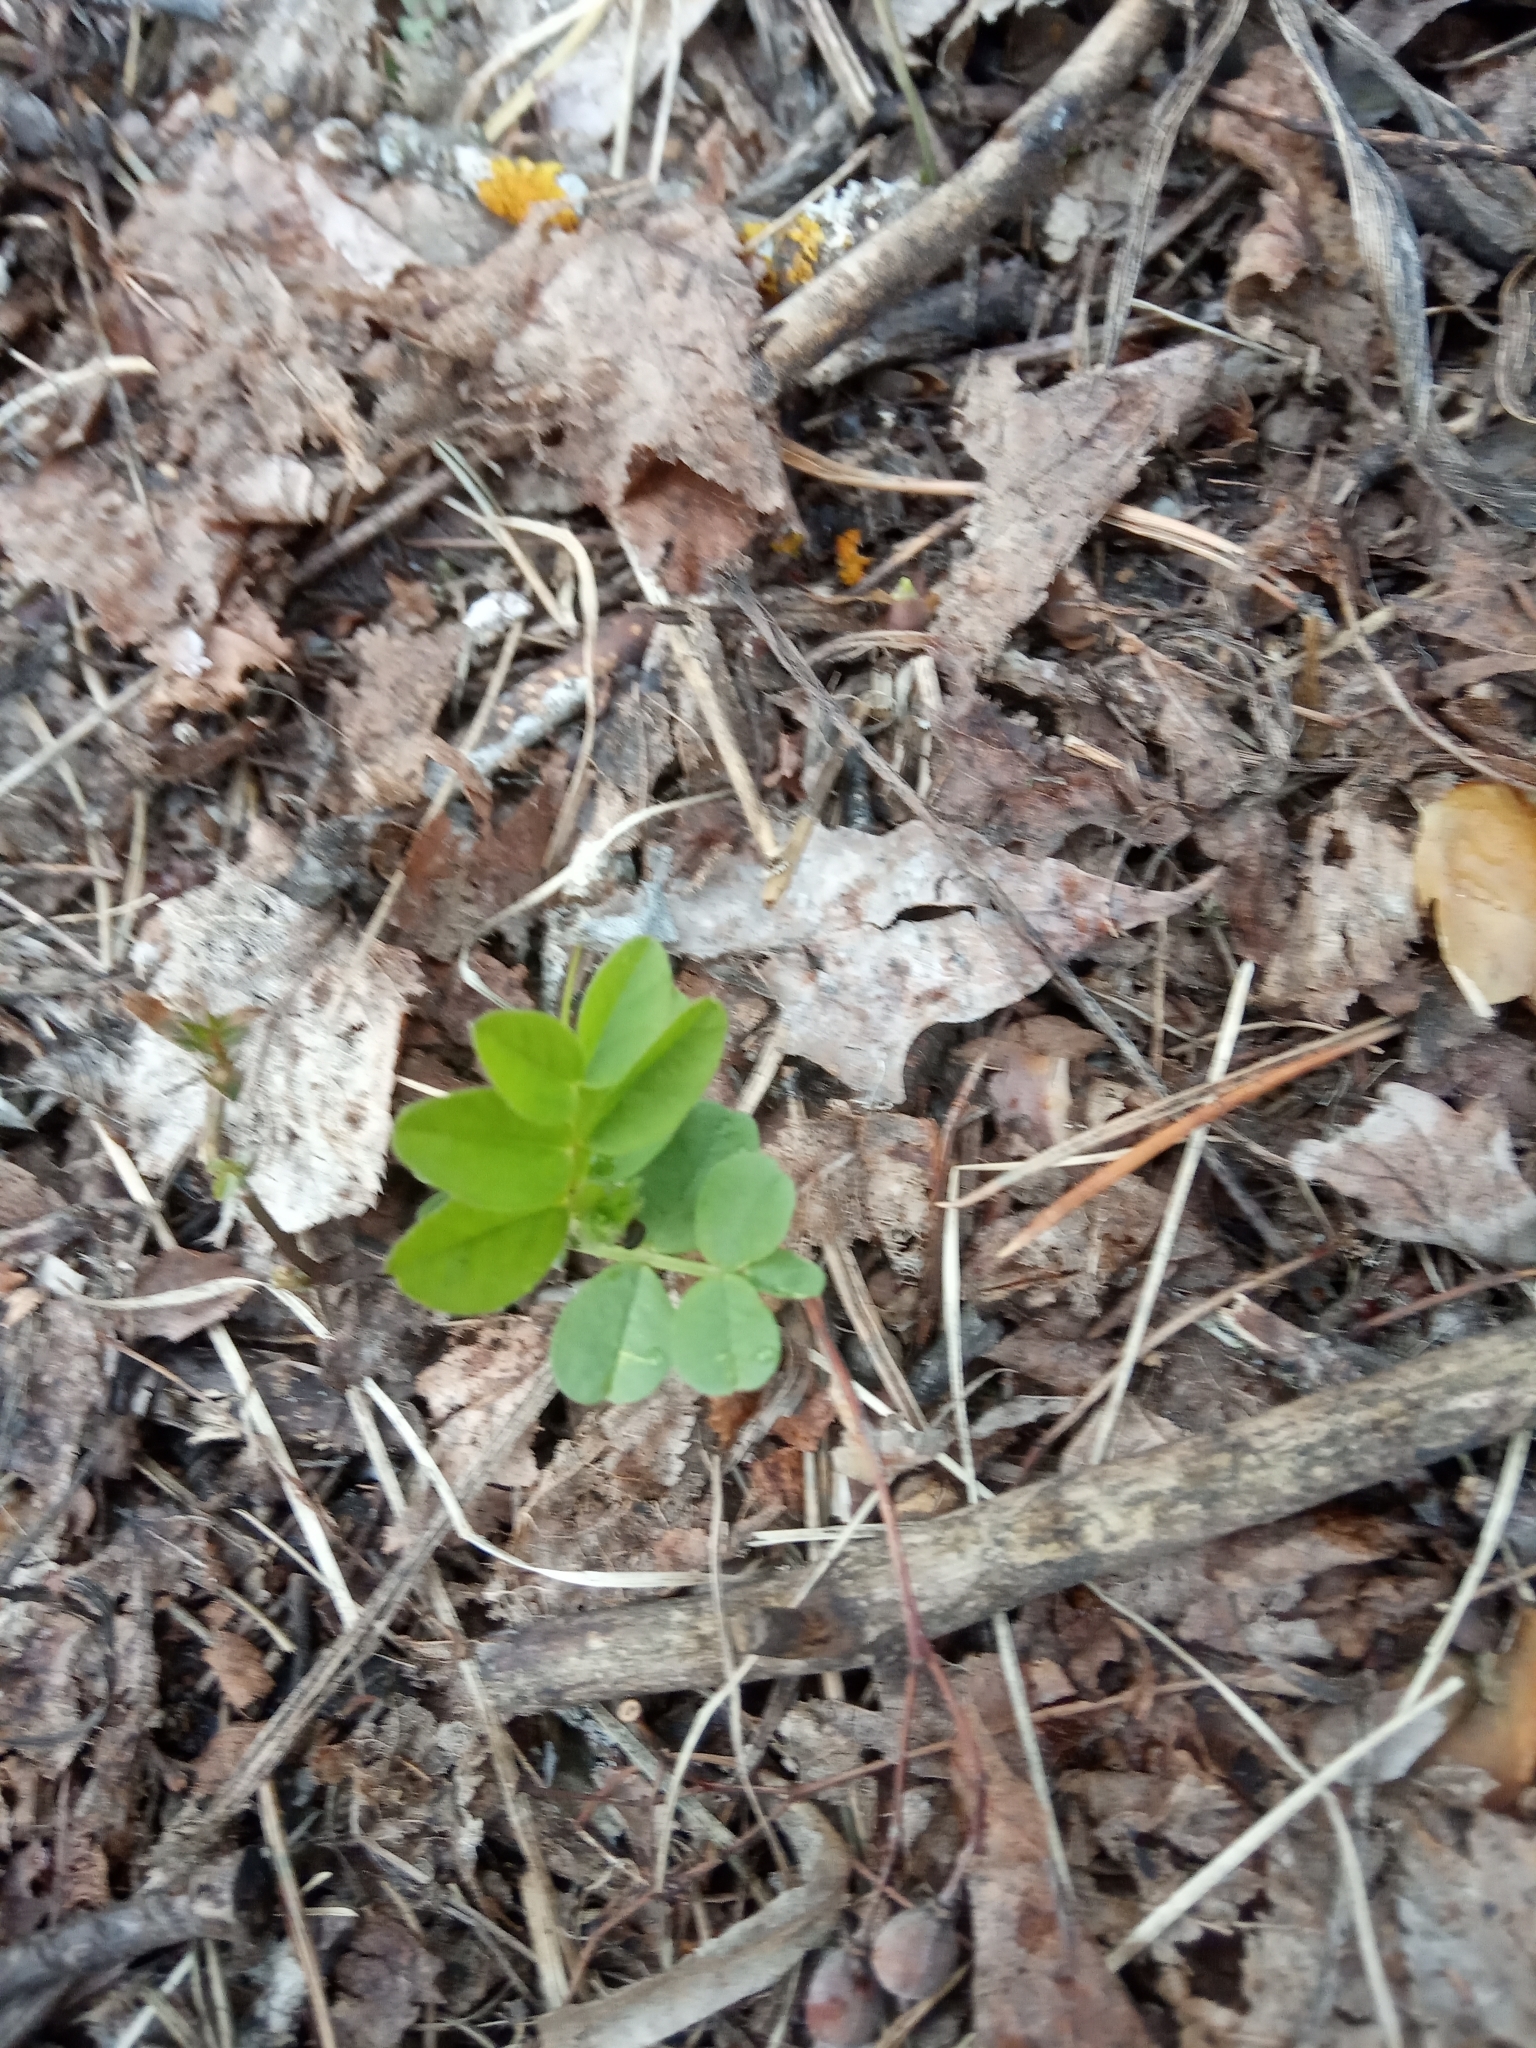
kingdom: Plantae
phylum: Tracheophyta
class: Magnoliopsida
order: Fabales
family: Fabaceae
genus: Coronilla
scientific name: Coronilla varia
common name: Crownvetch
